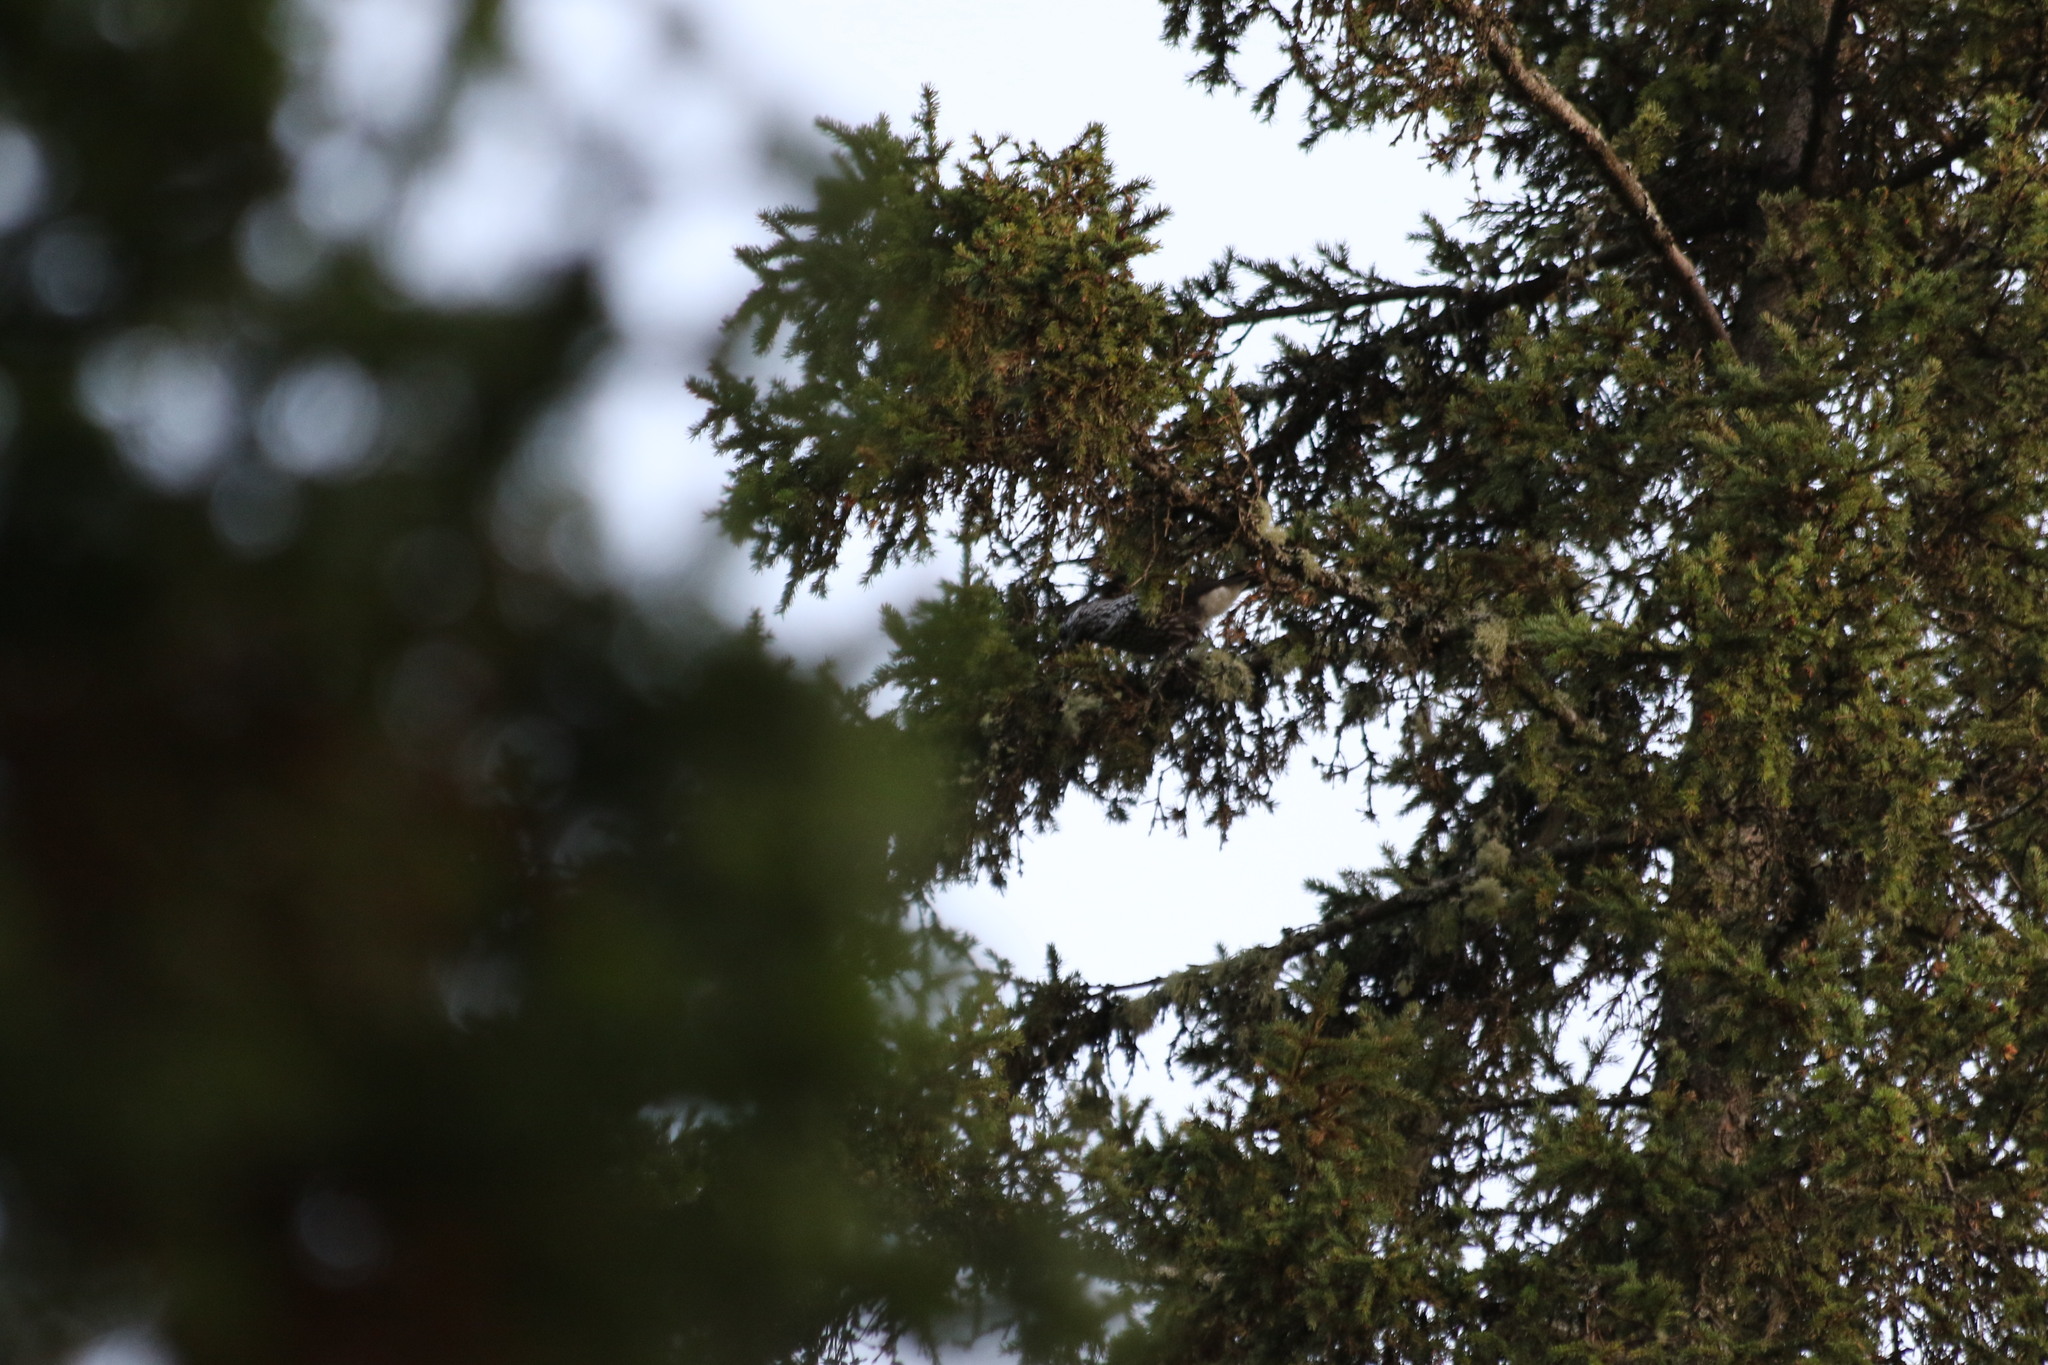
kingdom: Animalia
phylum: Chordata
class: Aves
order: Passeriformes
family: Corvidae
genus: Nucifraga
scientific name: Nucifraga caryocatactes
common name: Spotted nutcracker
